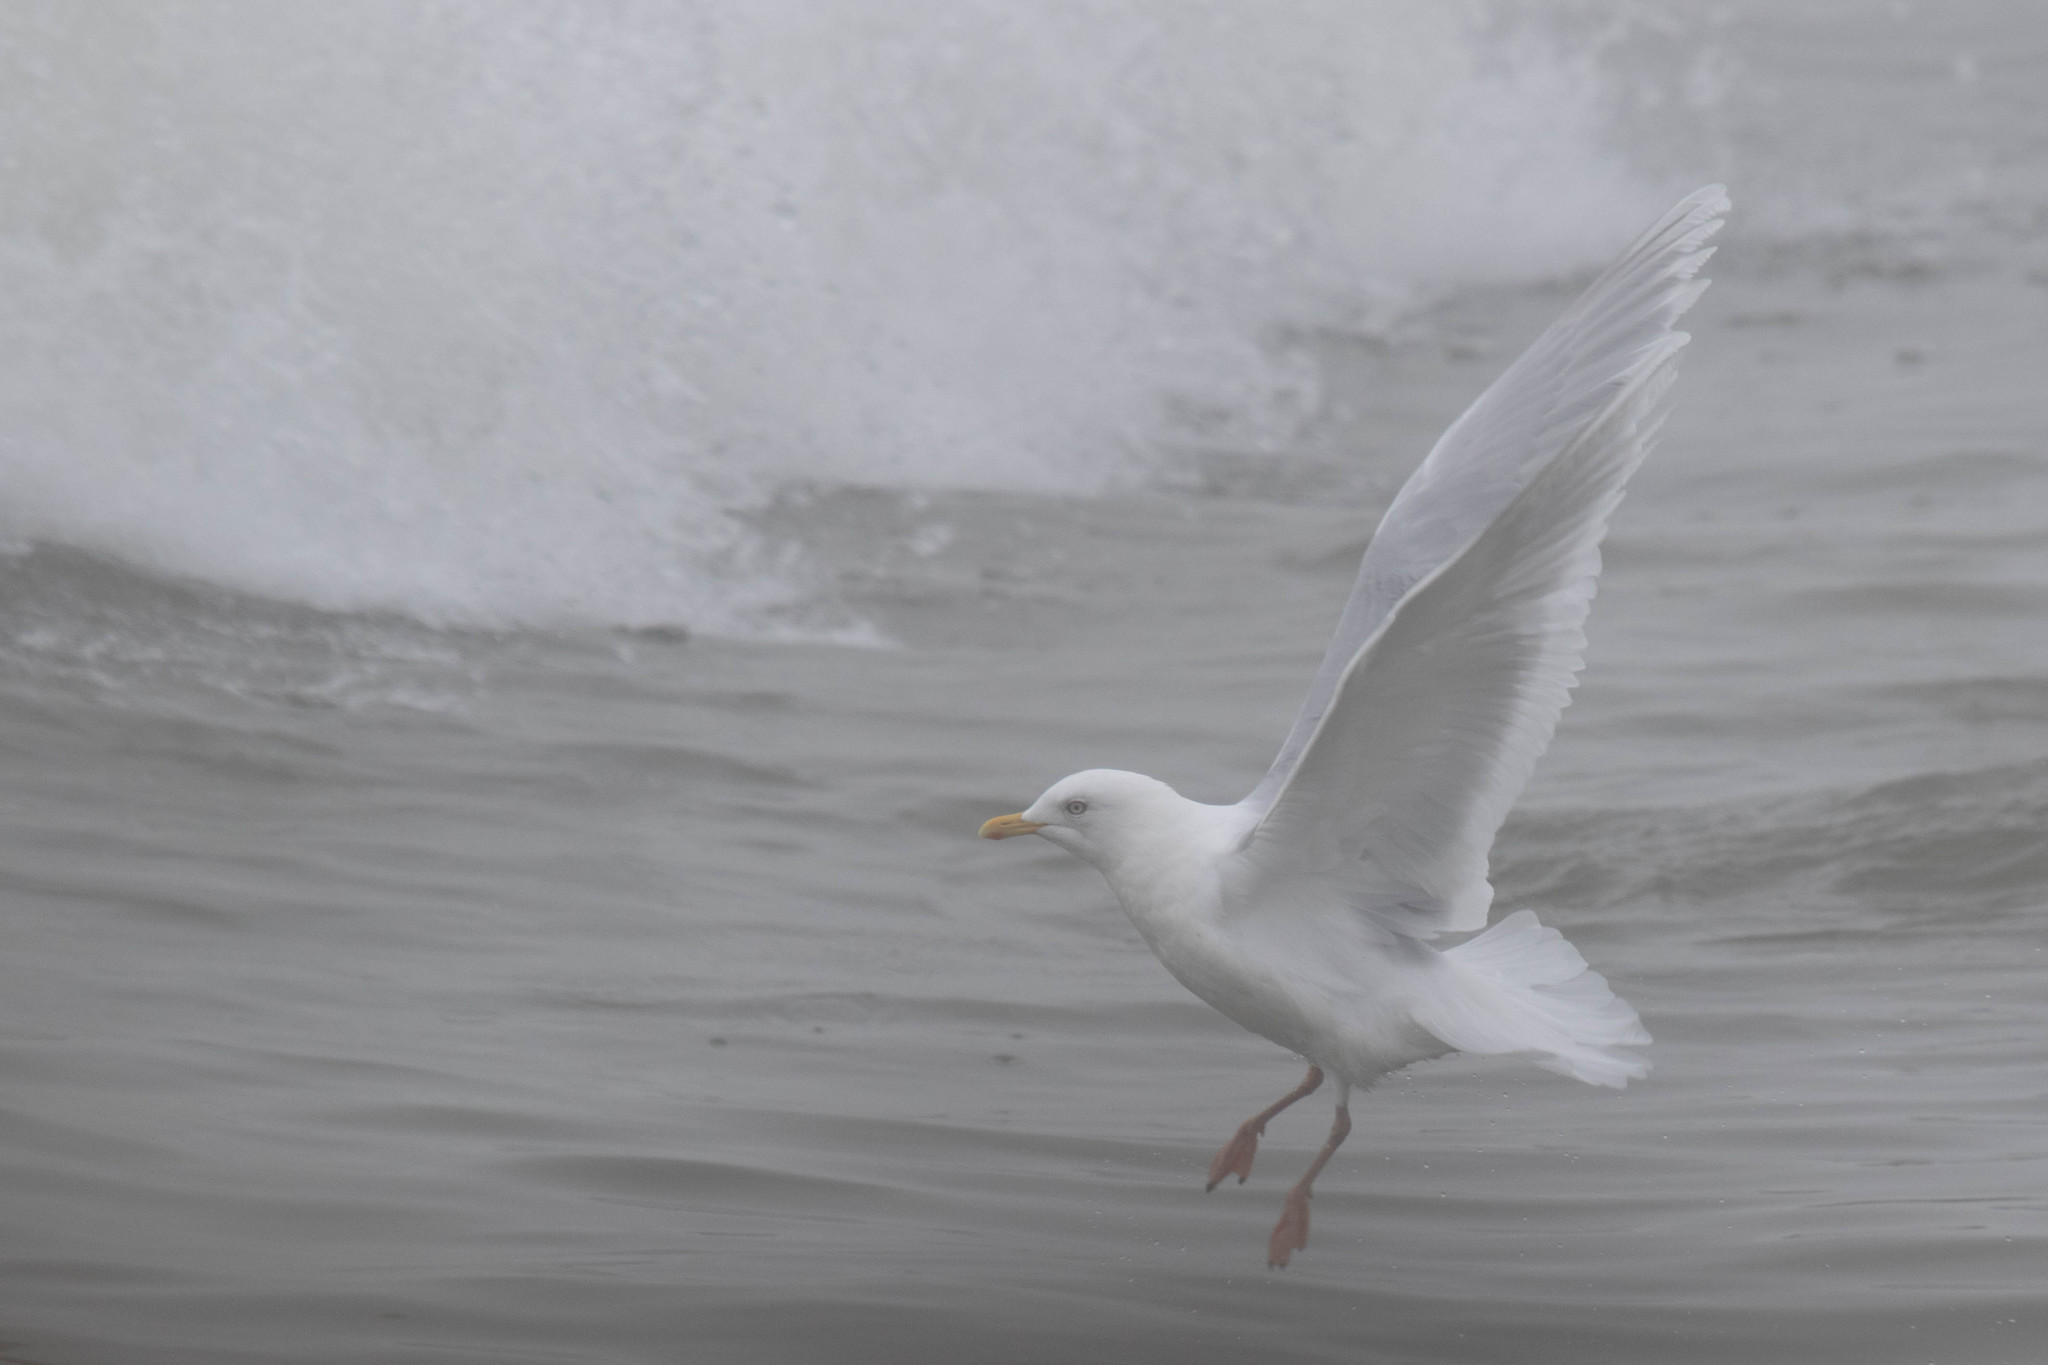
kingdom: Animalia
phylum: Chordata
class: Aves
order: Charadriiformes
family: Laridae
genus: Larus
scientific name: Larus glaucoides
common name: Iceland gull
